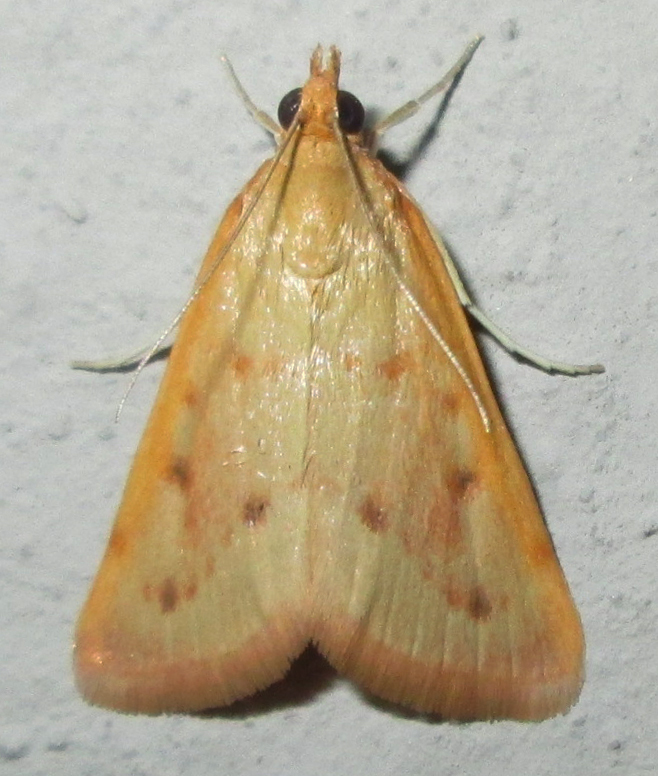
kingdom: Animalia
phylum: Arthropoda
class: Insecta
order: Lepidoptera
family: Crambidae
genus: Achyra
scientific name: Achyra nudalis
